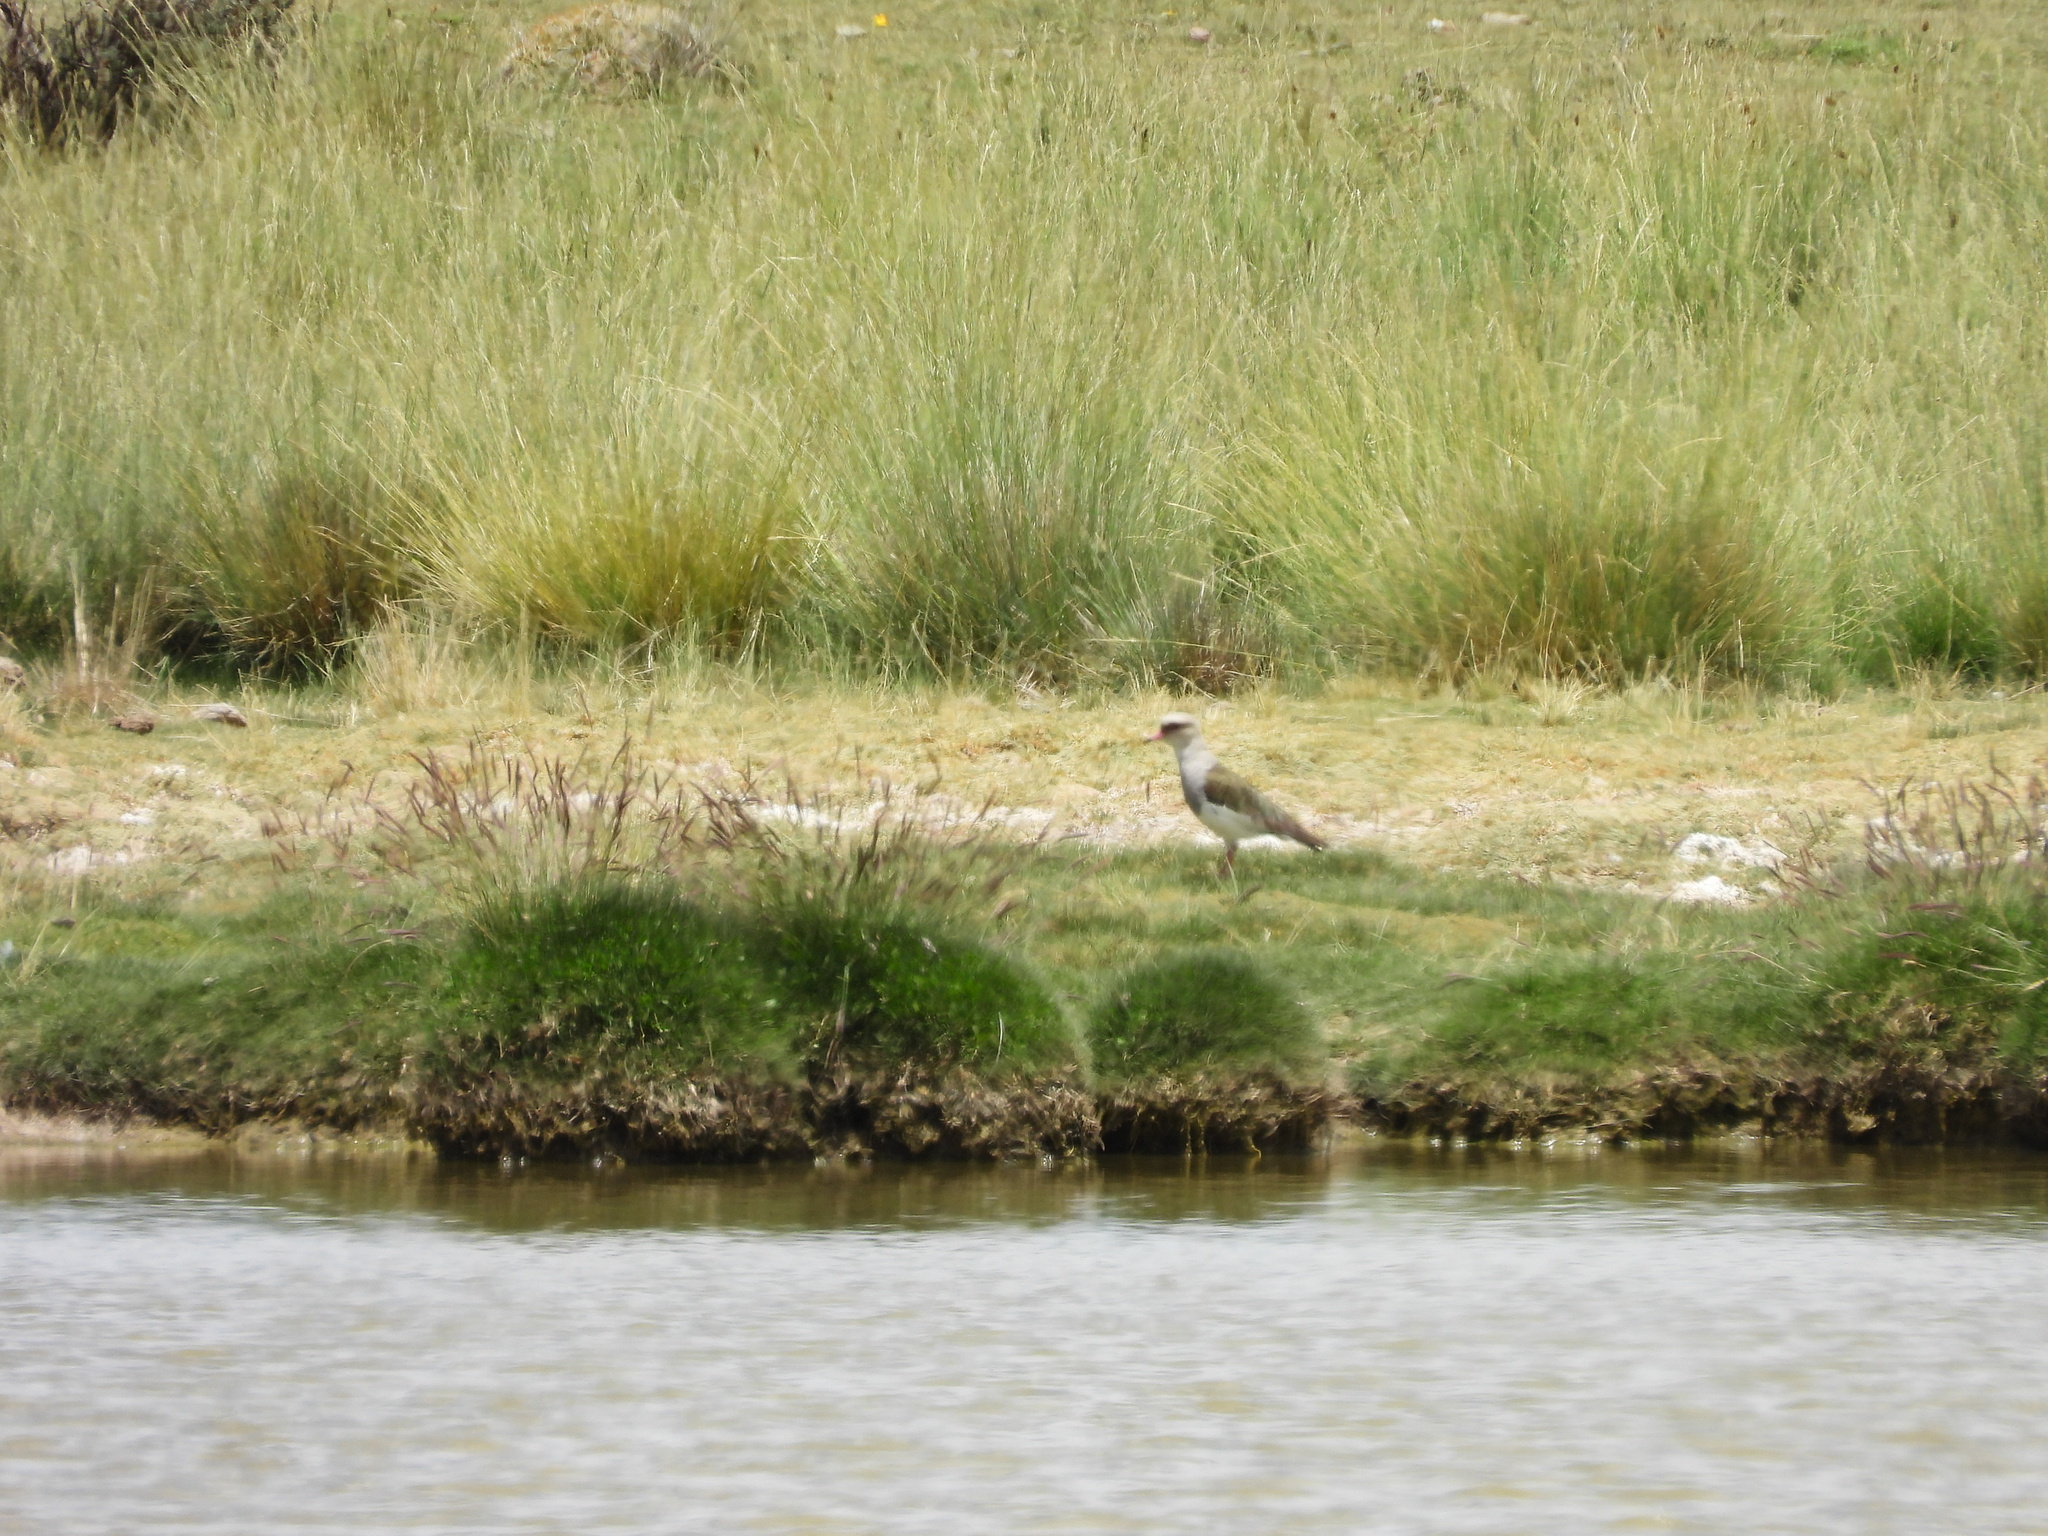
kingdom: Animalia
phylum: Chordata
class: Aves
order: Charadriiformes
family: Charadriidae
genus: Vanellus
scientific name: Vanellus resplendens
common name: Andean lapwing
